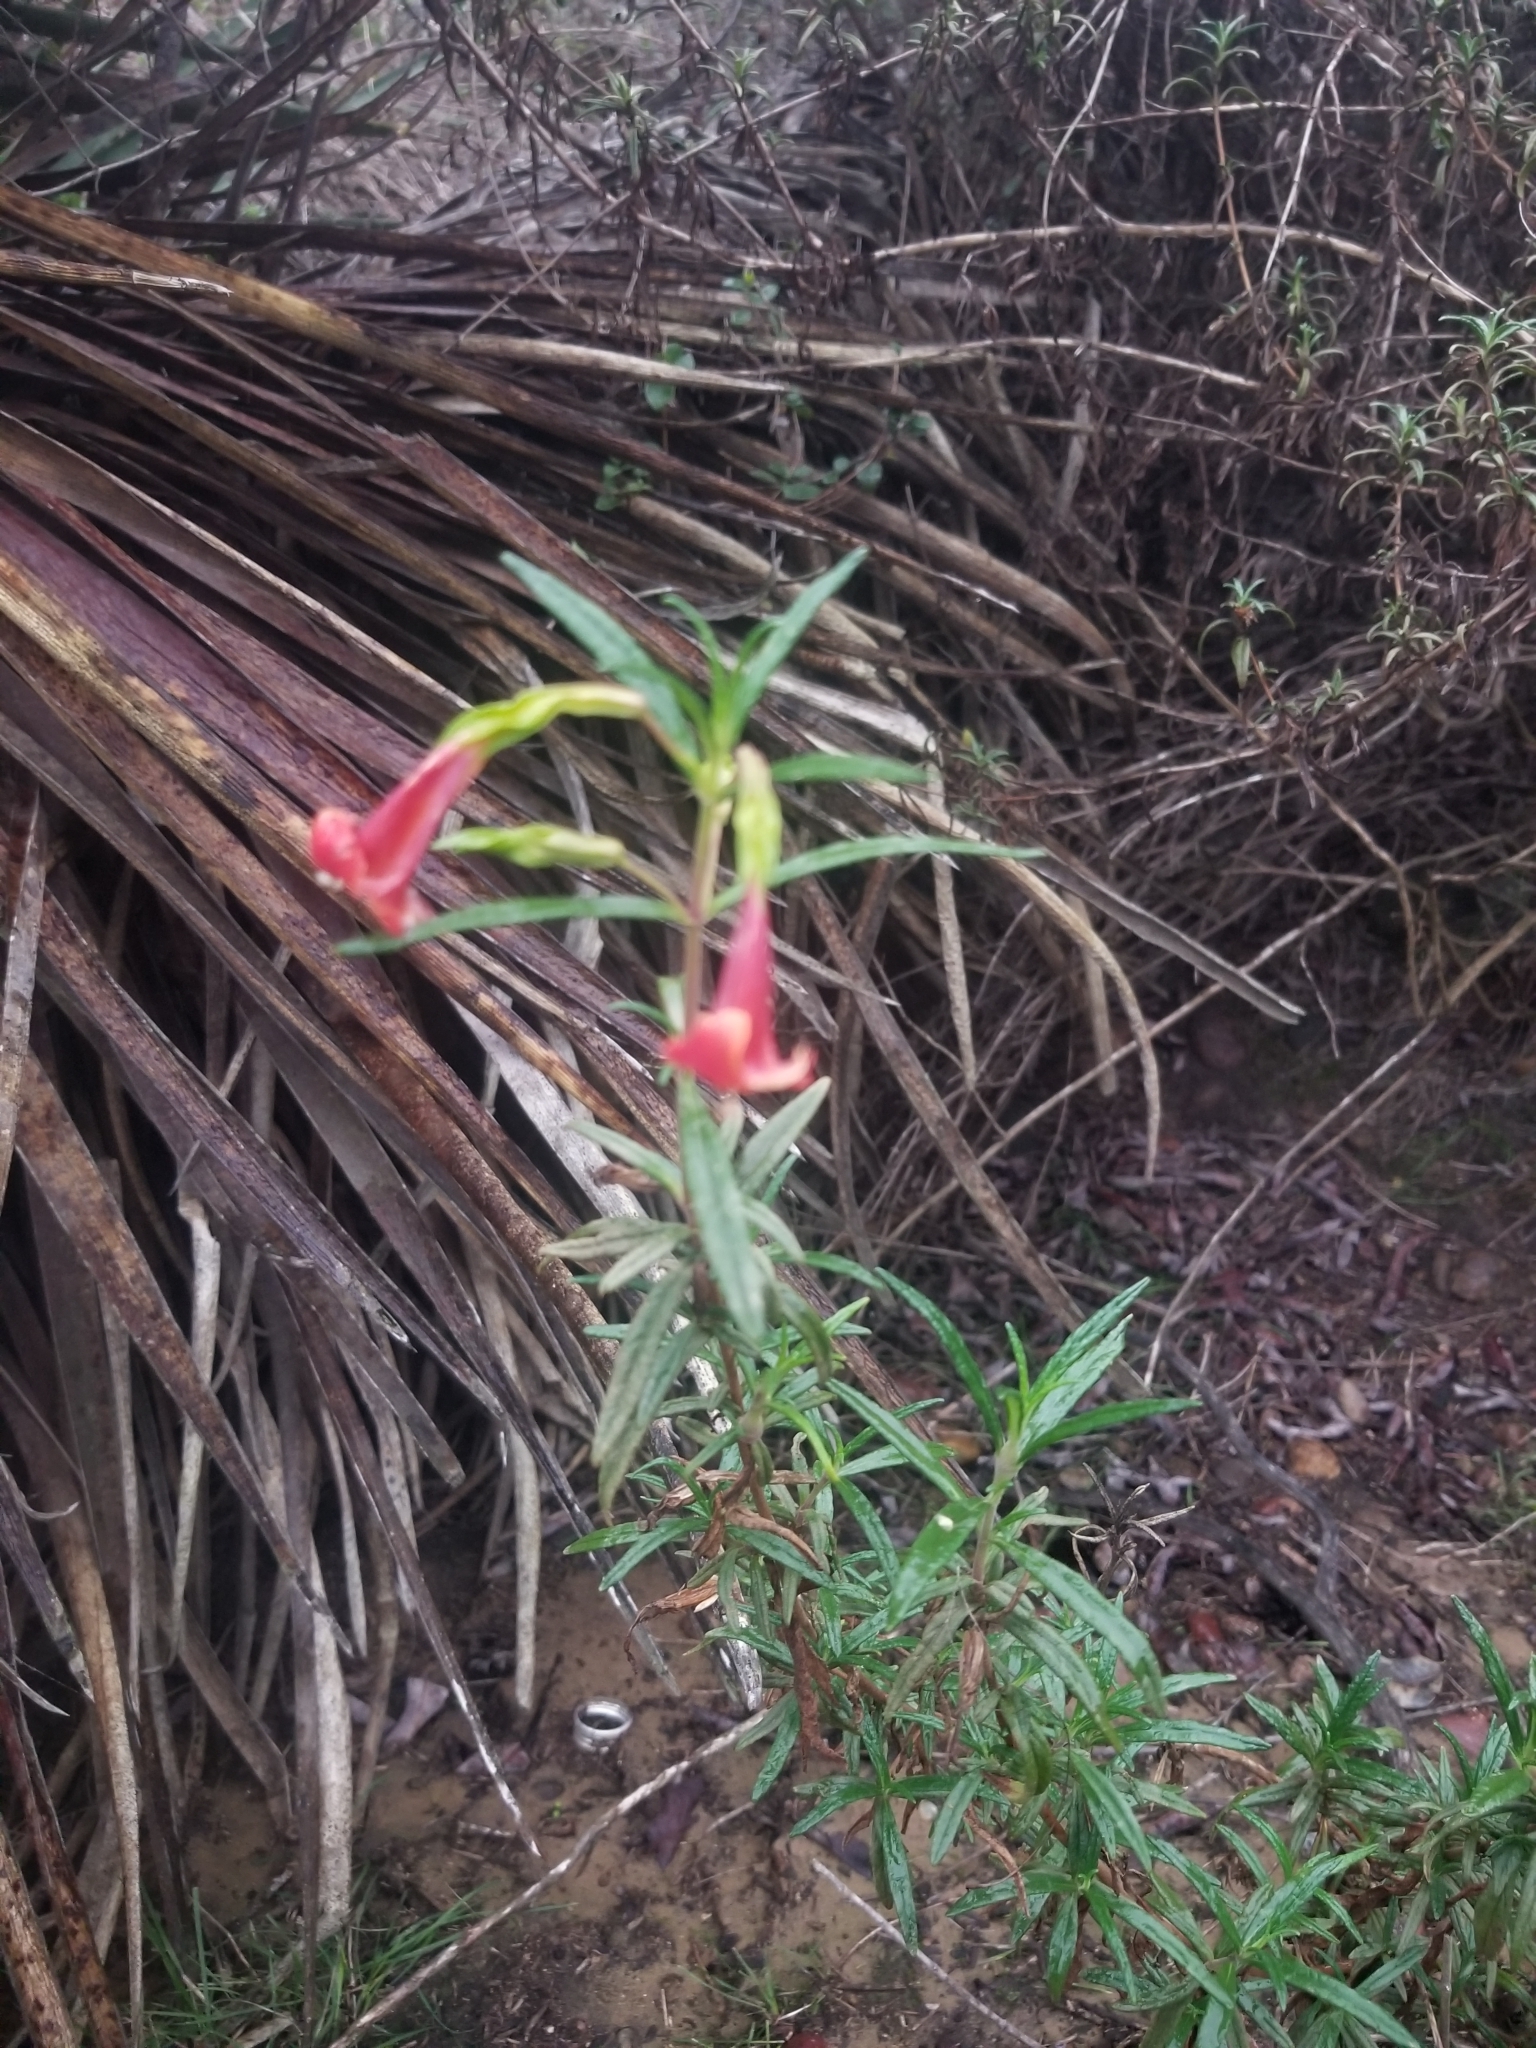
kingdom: Plantae
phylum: Tracheophyta
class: Magnoliopsida
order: Lamiales
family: Phrymaceae
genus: Diplacus
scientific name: Diplacus puniceus
